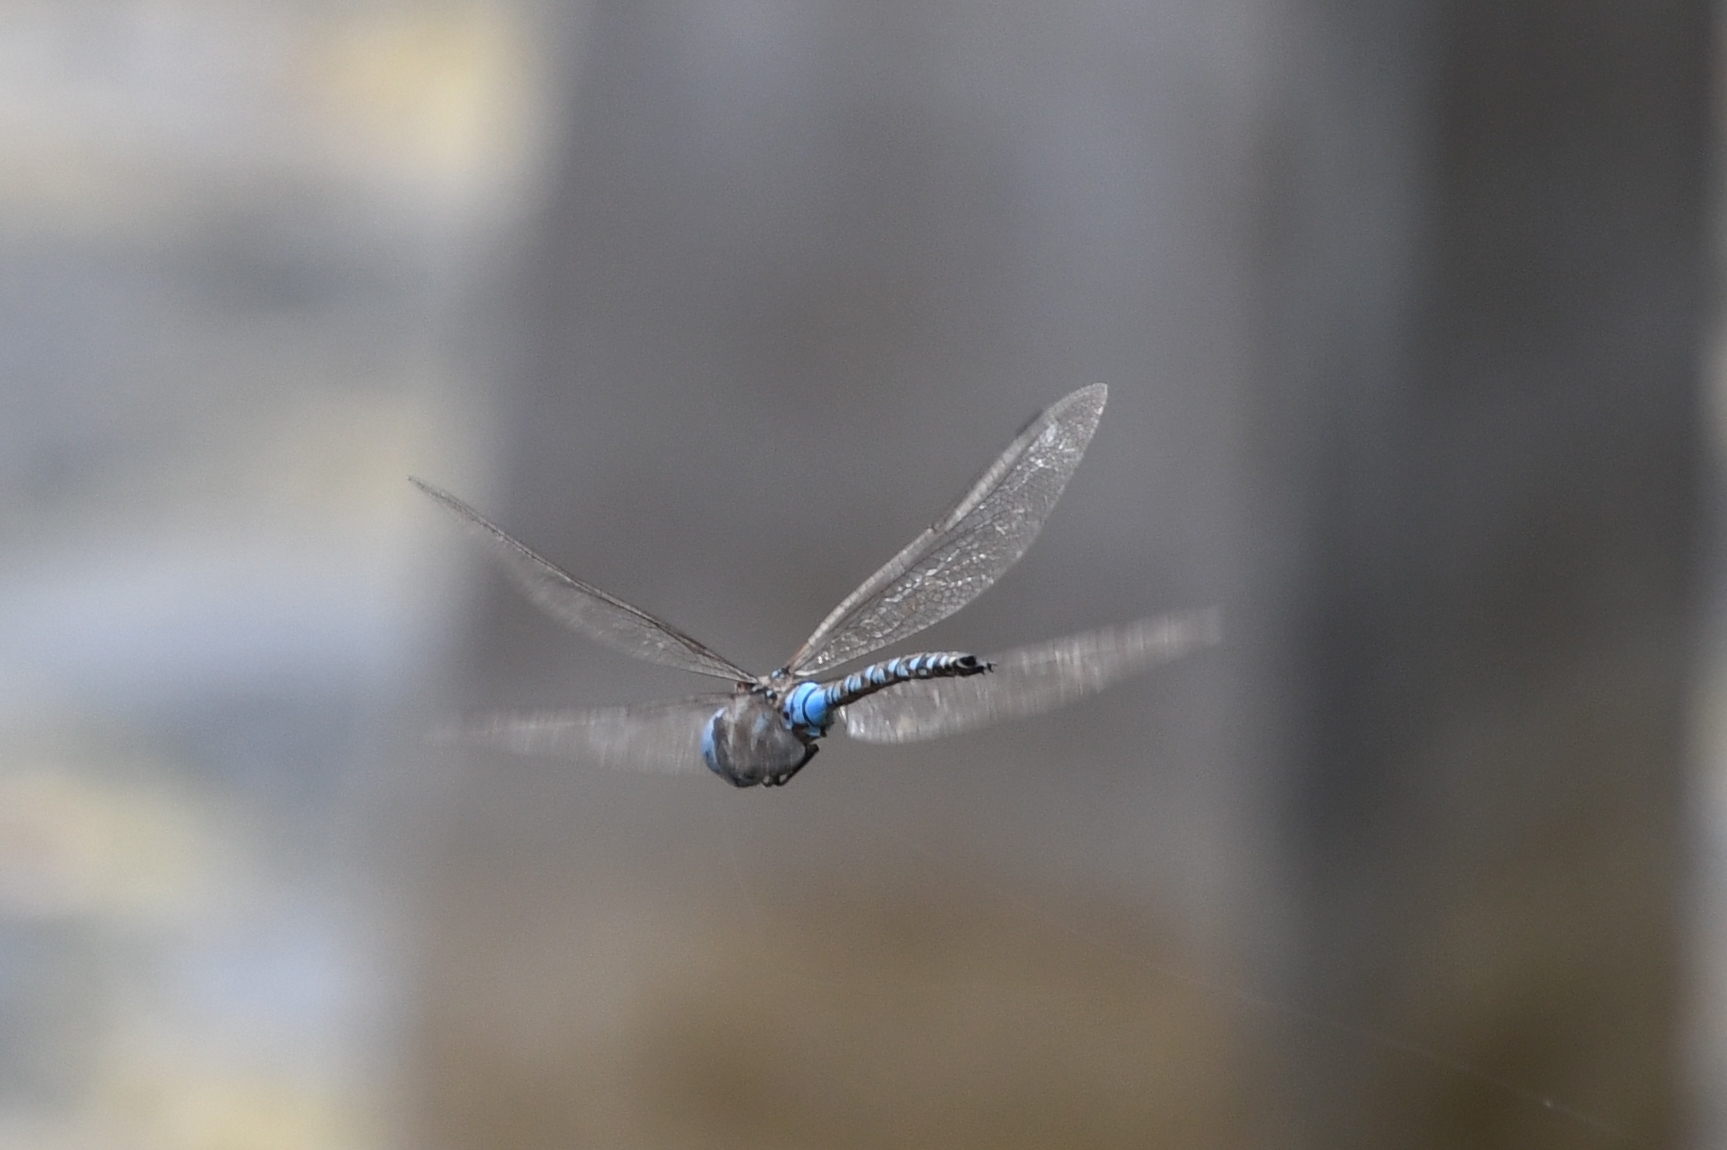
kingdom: Animalia
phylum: Arthropoda
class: Insecta
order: Odonata
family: Aeshnidae
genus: Rhionaeschna
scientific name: Rhionaeschna multicolor
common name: Blue-eyed darner
